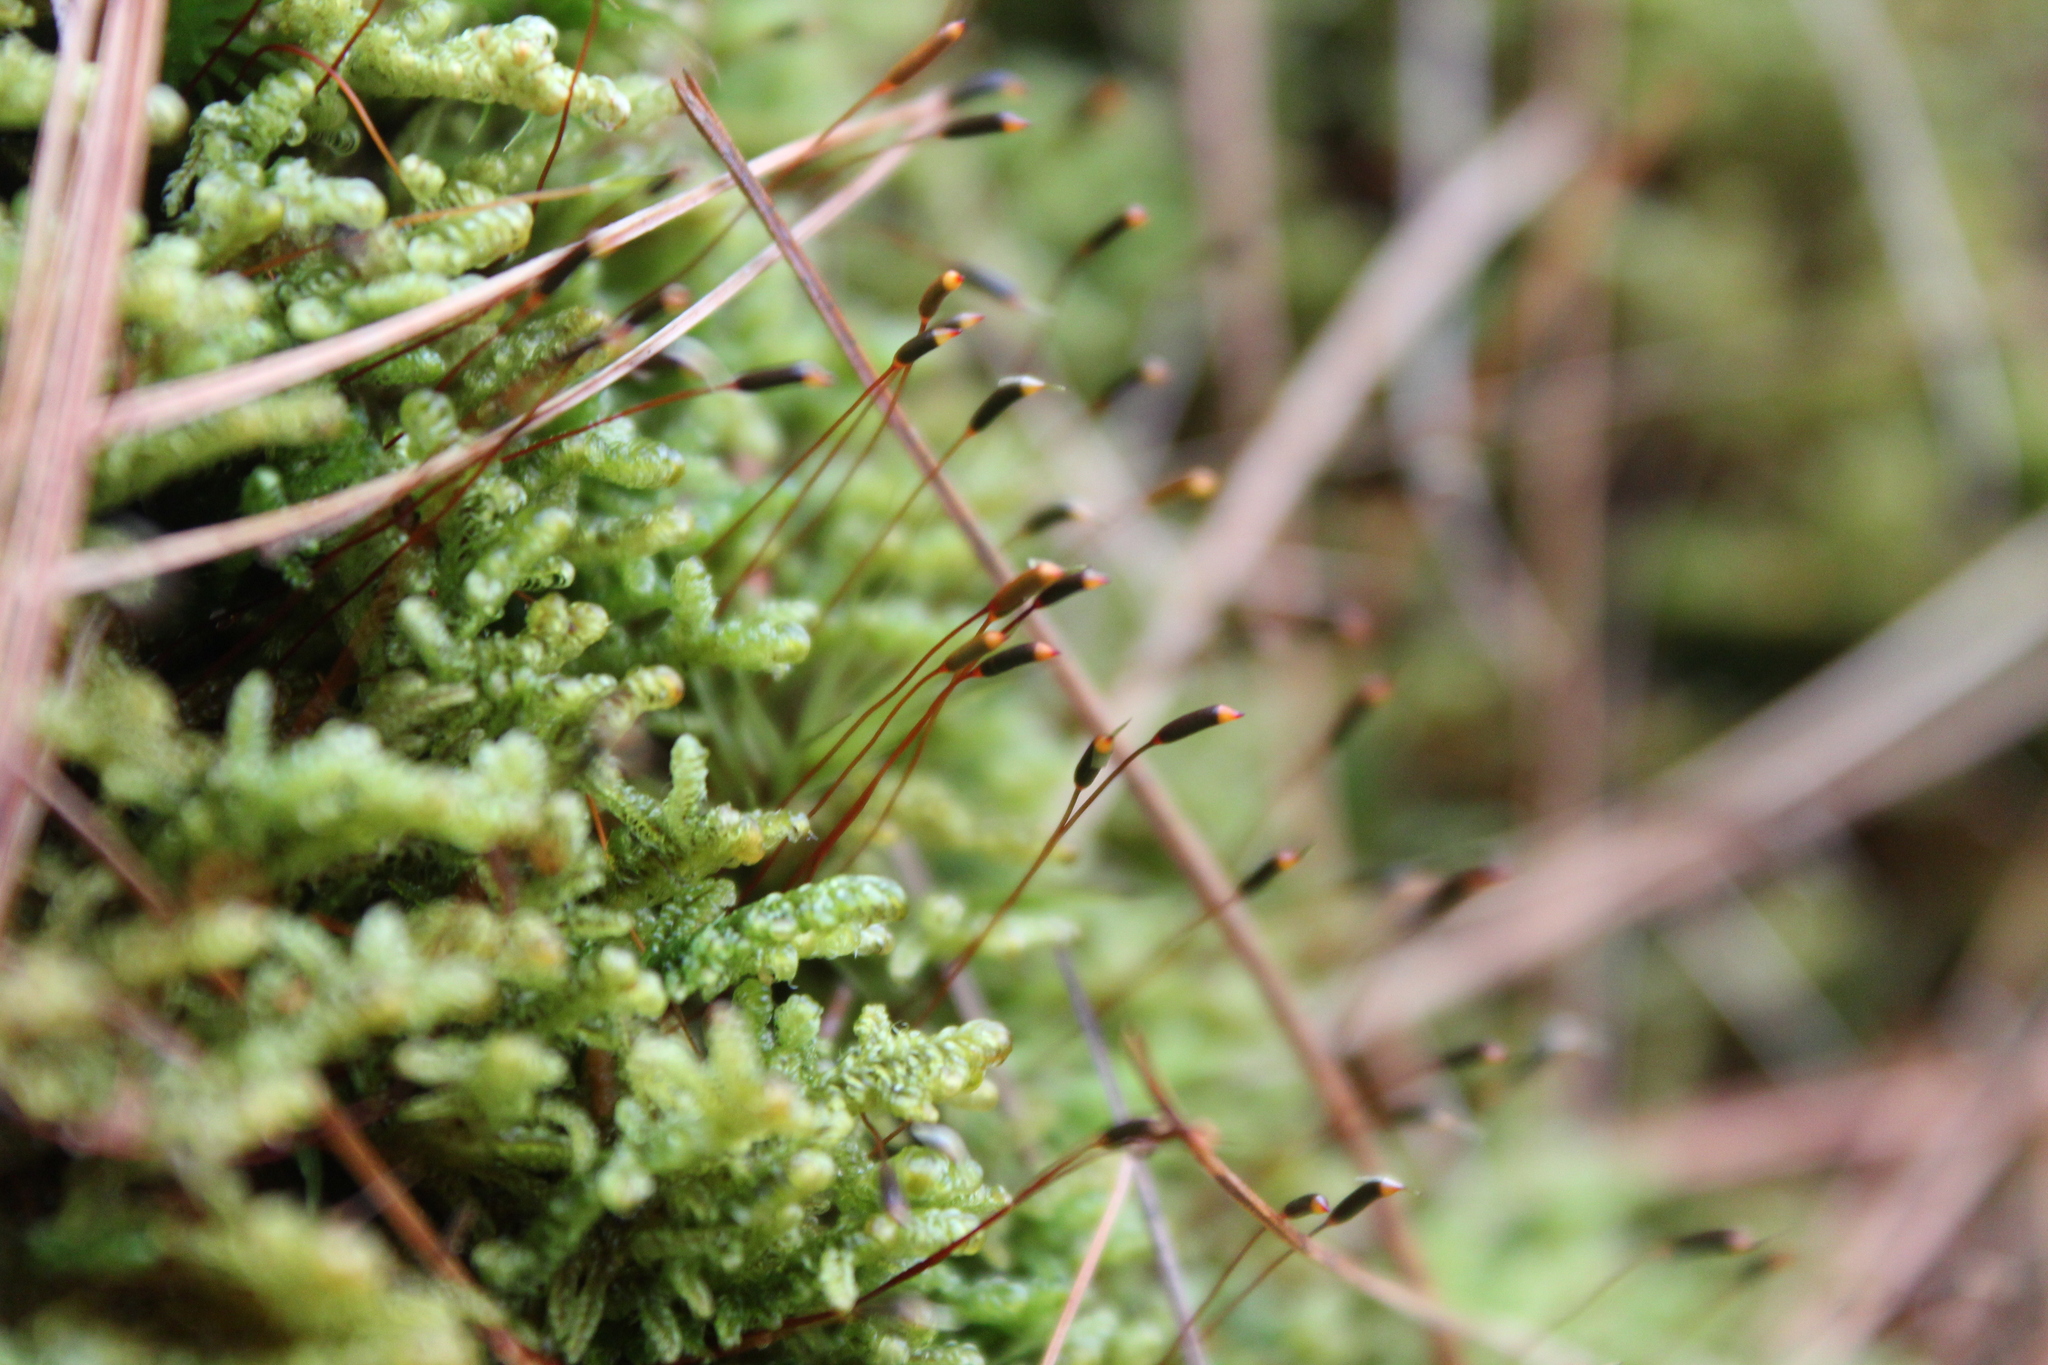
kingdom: Plantae
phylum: Bryophyta
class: Bryopsida
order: Hypnales
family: Callicladiaceae
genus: Callicladium
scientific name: Callicladium imponens
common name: Brocade moss
